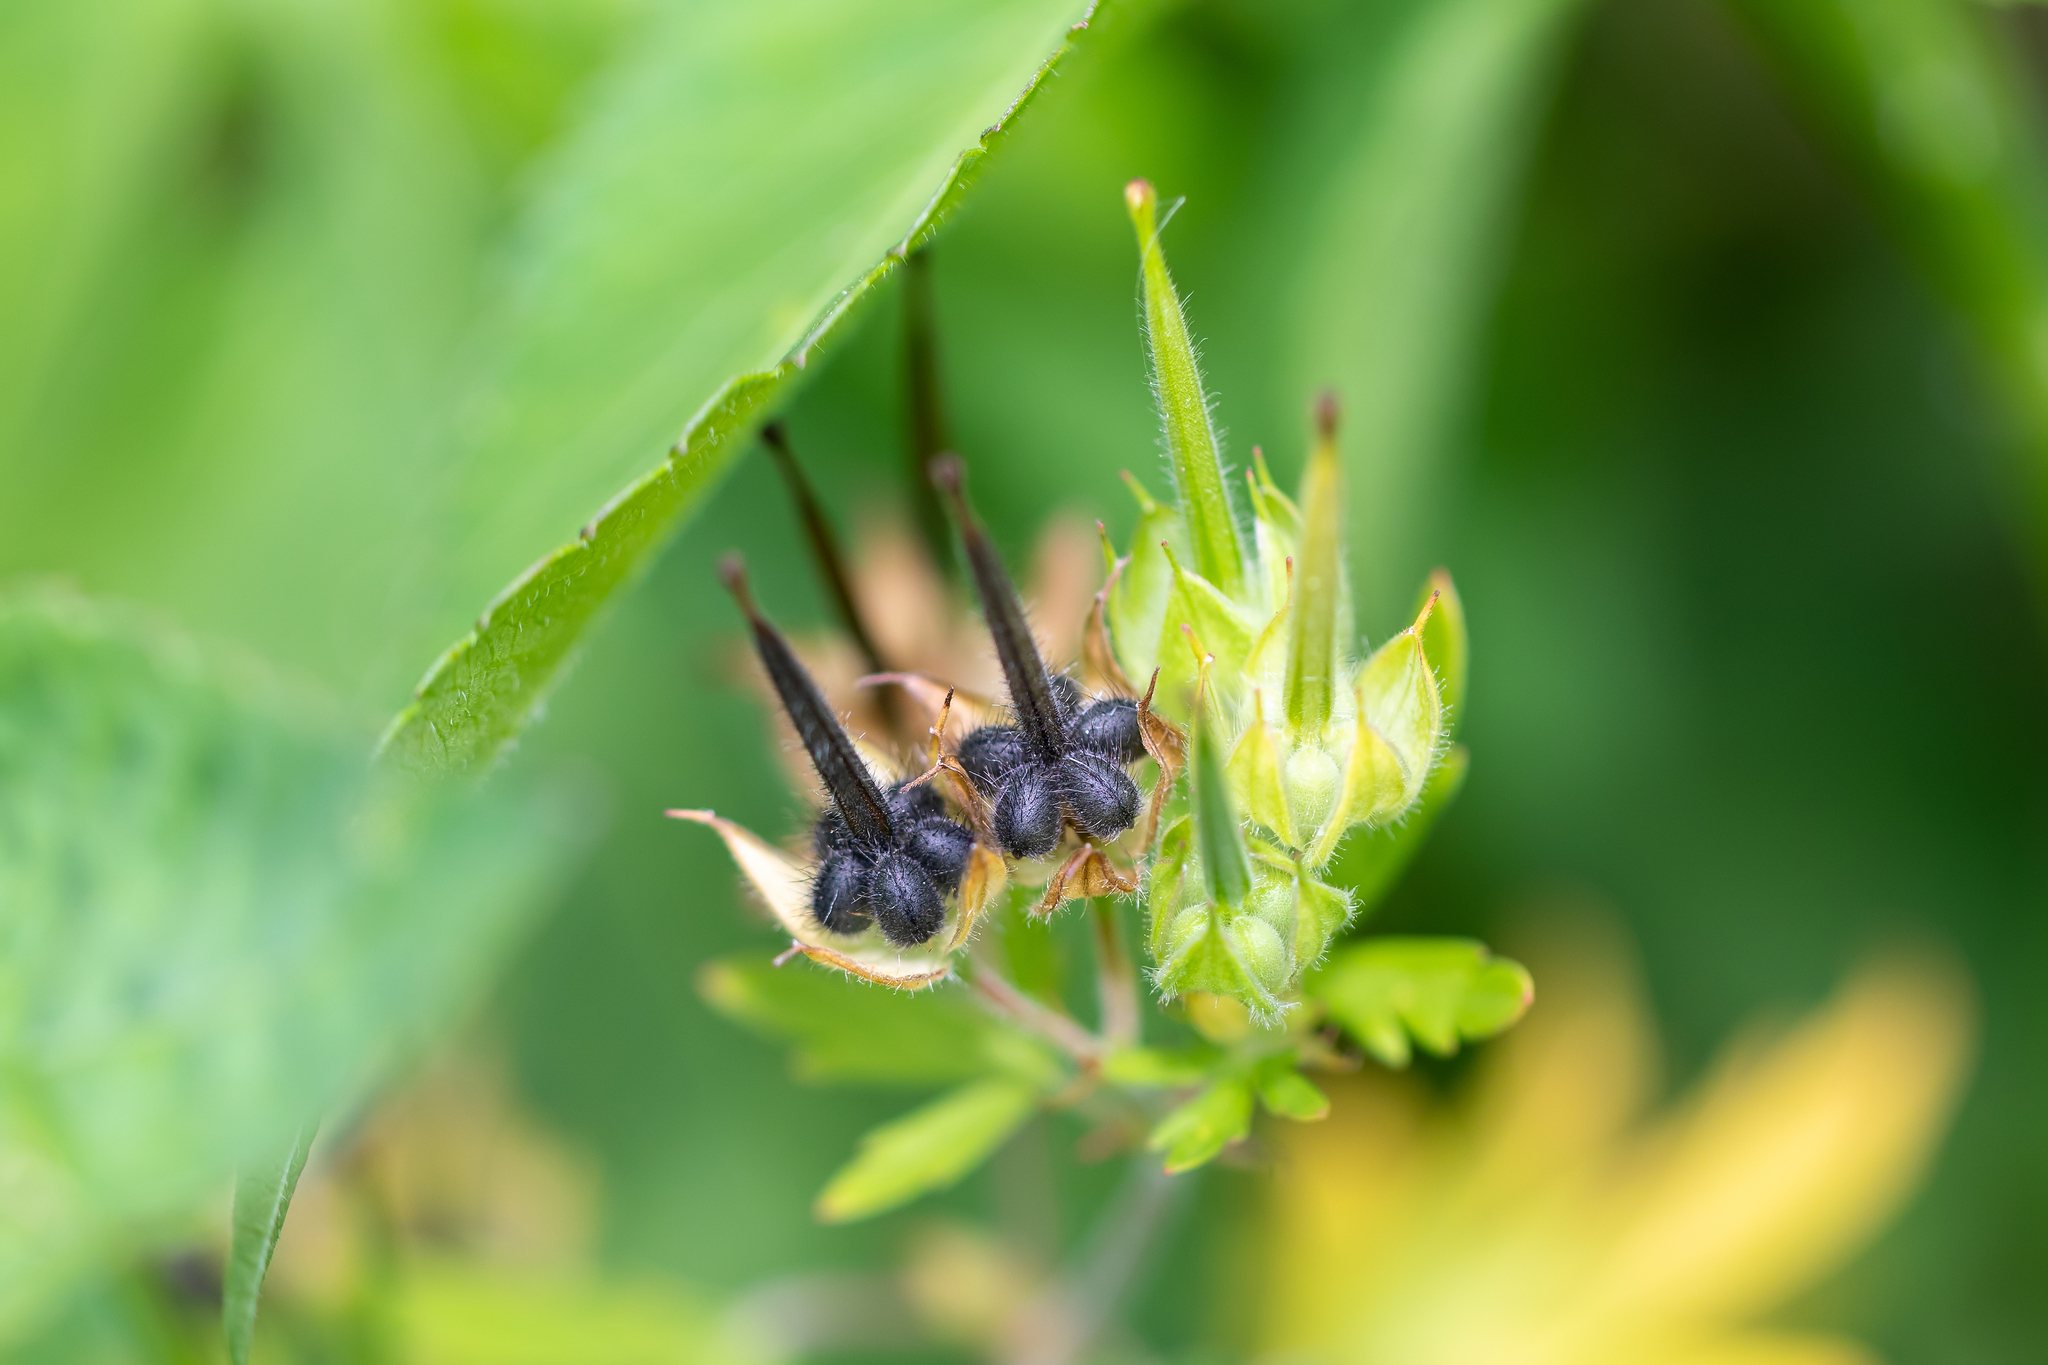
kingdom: Plantae
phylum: Tracheophyta
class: Magnoliopsida
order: Geraniales
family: Geraniaceae
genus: Geranium
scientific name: Geranium carolinianum
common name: Carolina crane's-bill
